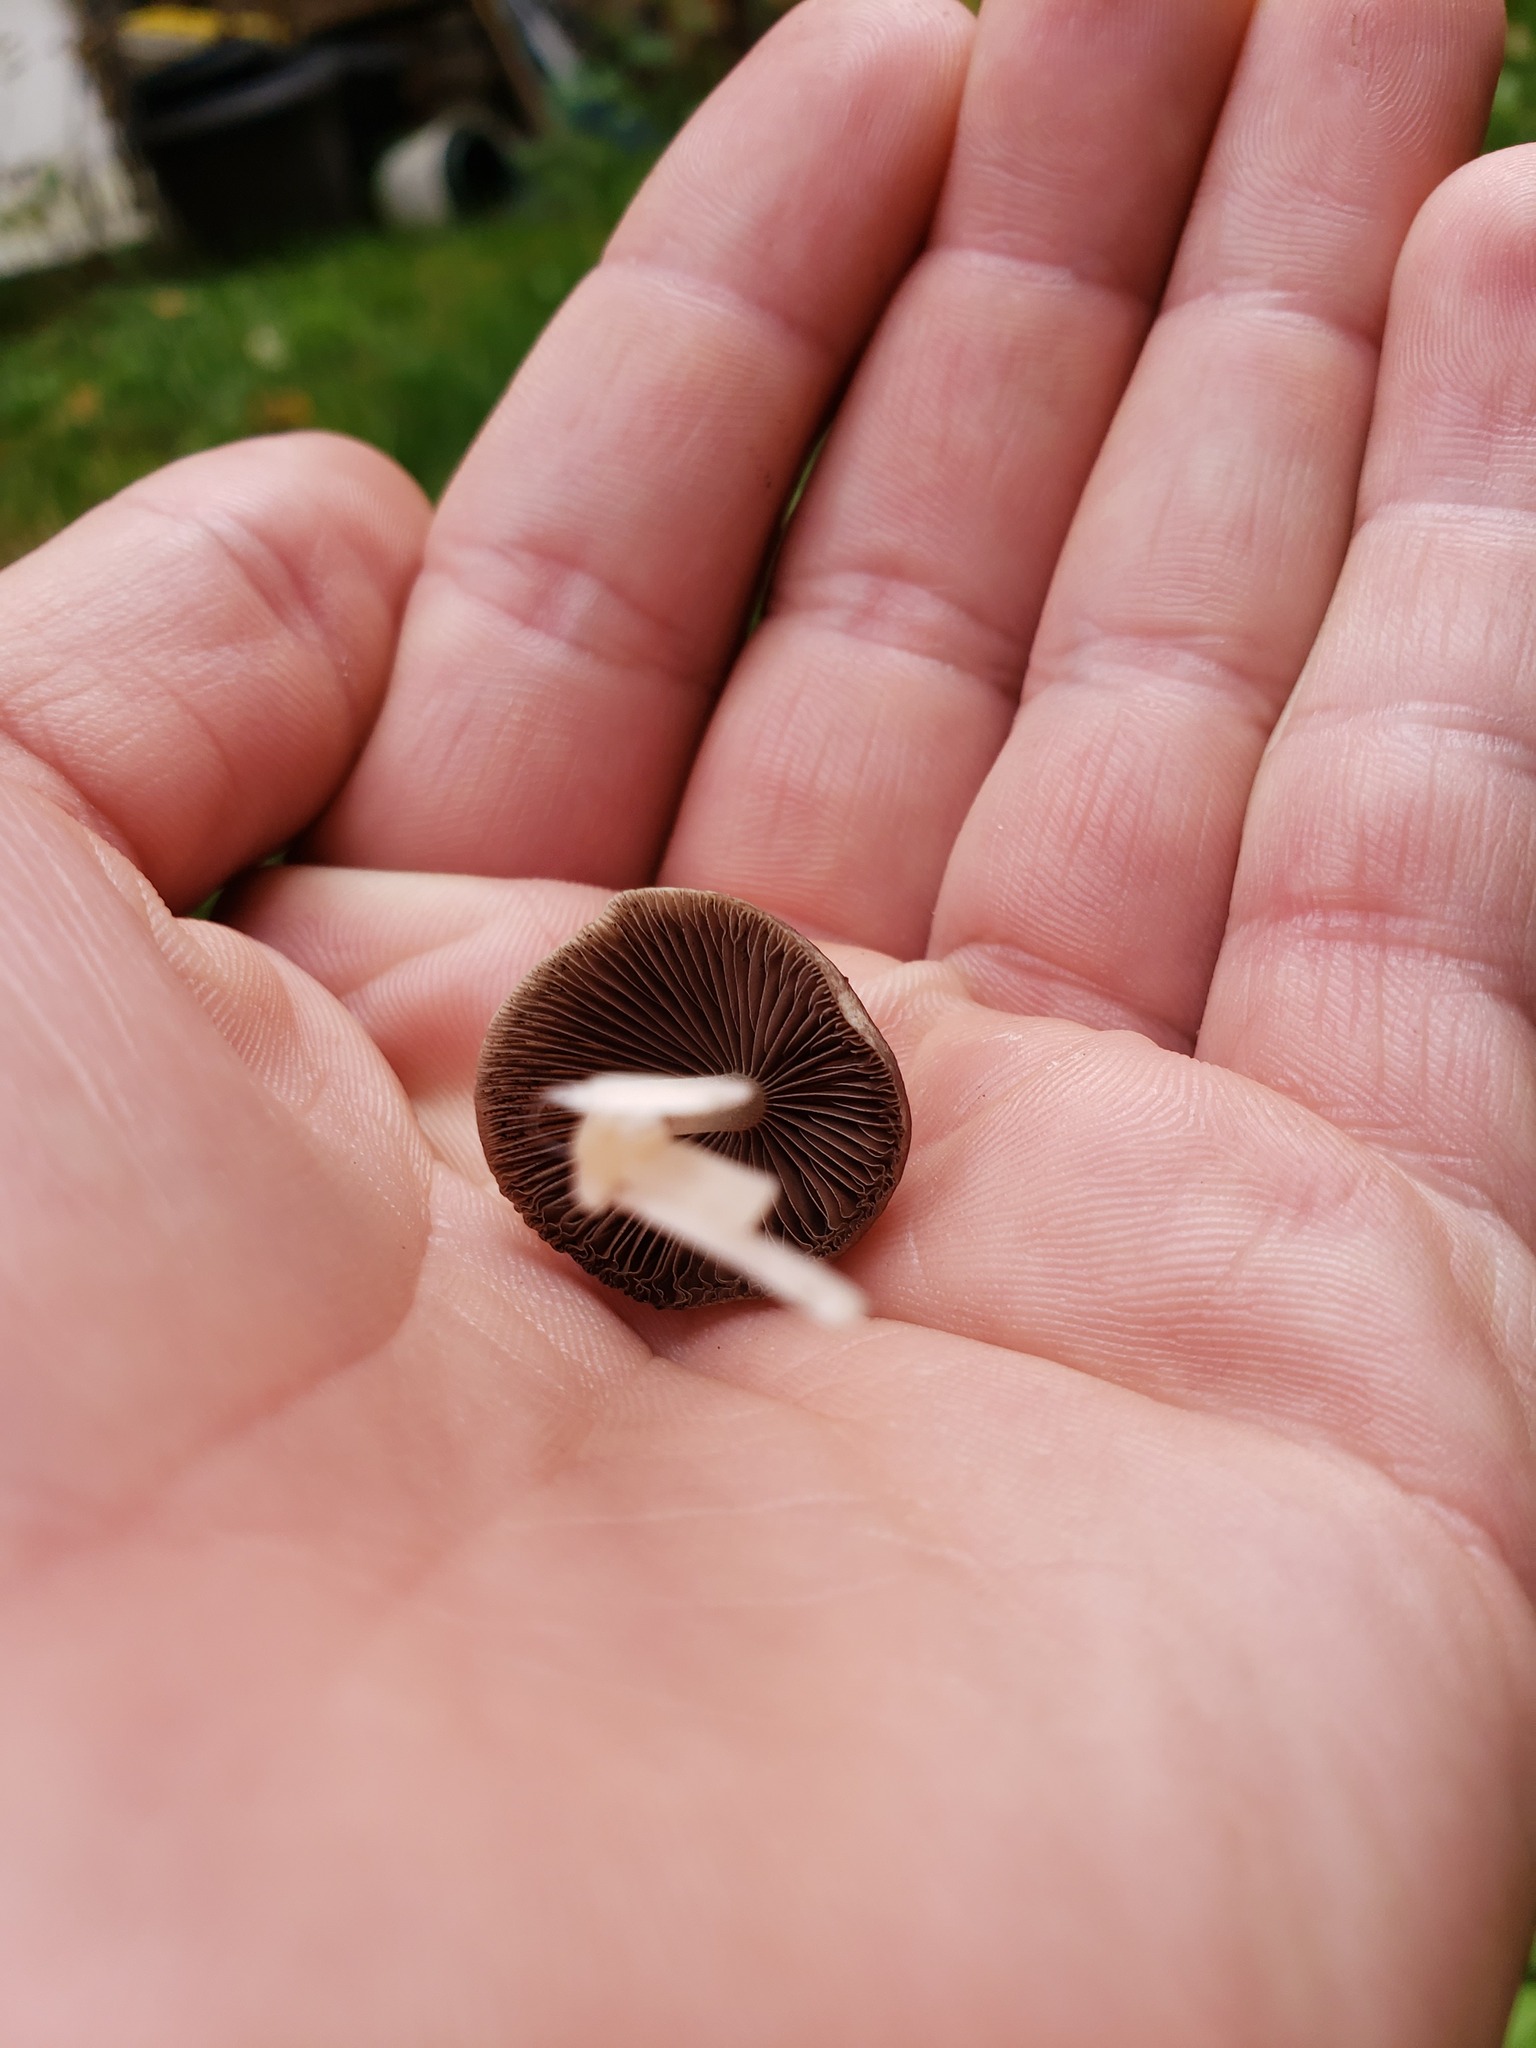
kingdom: Fungi
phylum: Basidiomycota
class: Agaricomycetes
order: Agaricales
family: Bolbitiaceae
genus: Panaeolina
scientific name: Panaeolina foenisecii
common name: Brown hay cap
